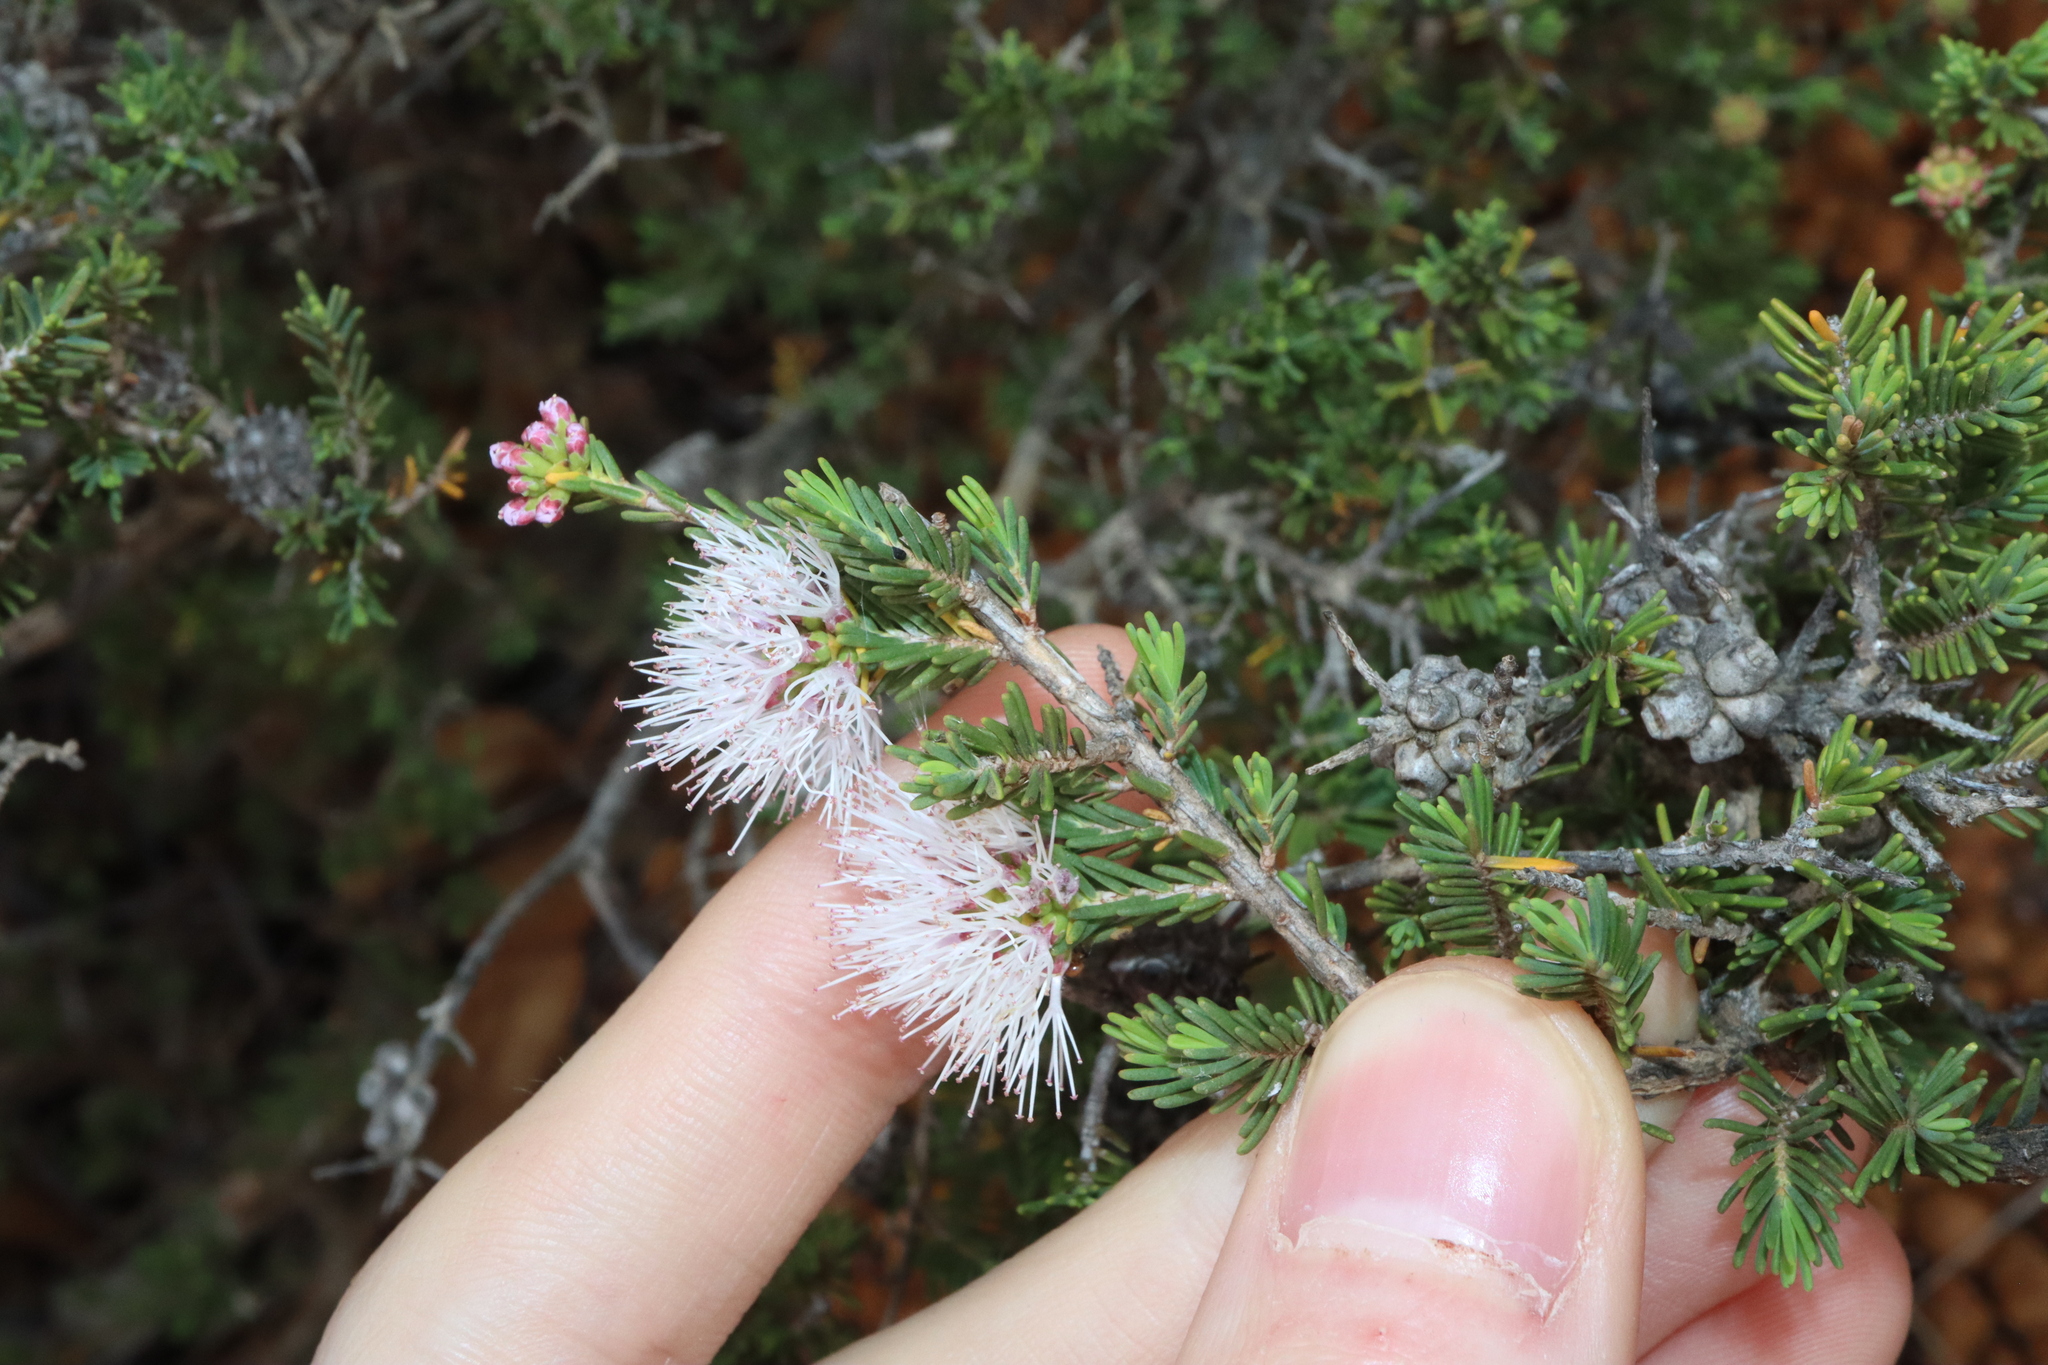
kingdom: Plantae
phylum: Tracheophyta
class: Magnoliopsida
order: Myrtales
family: Myrtaceae
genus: Melaleuca
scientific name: Melaleuca jonesii
